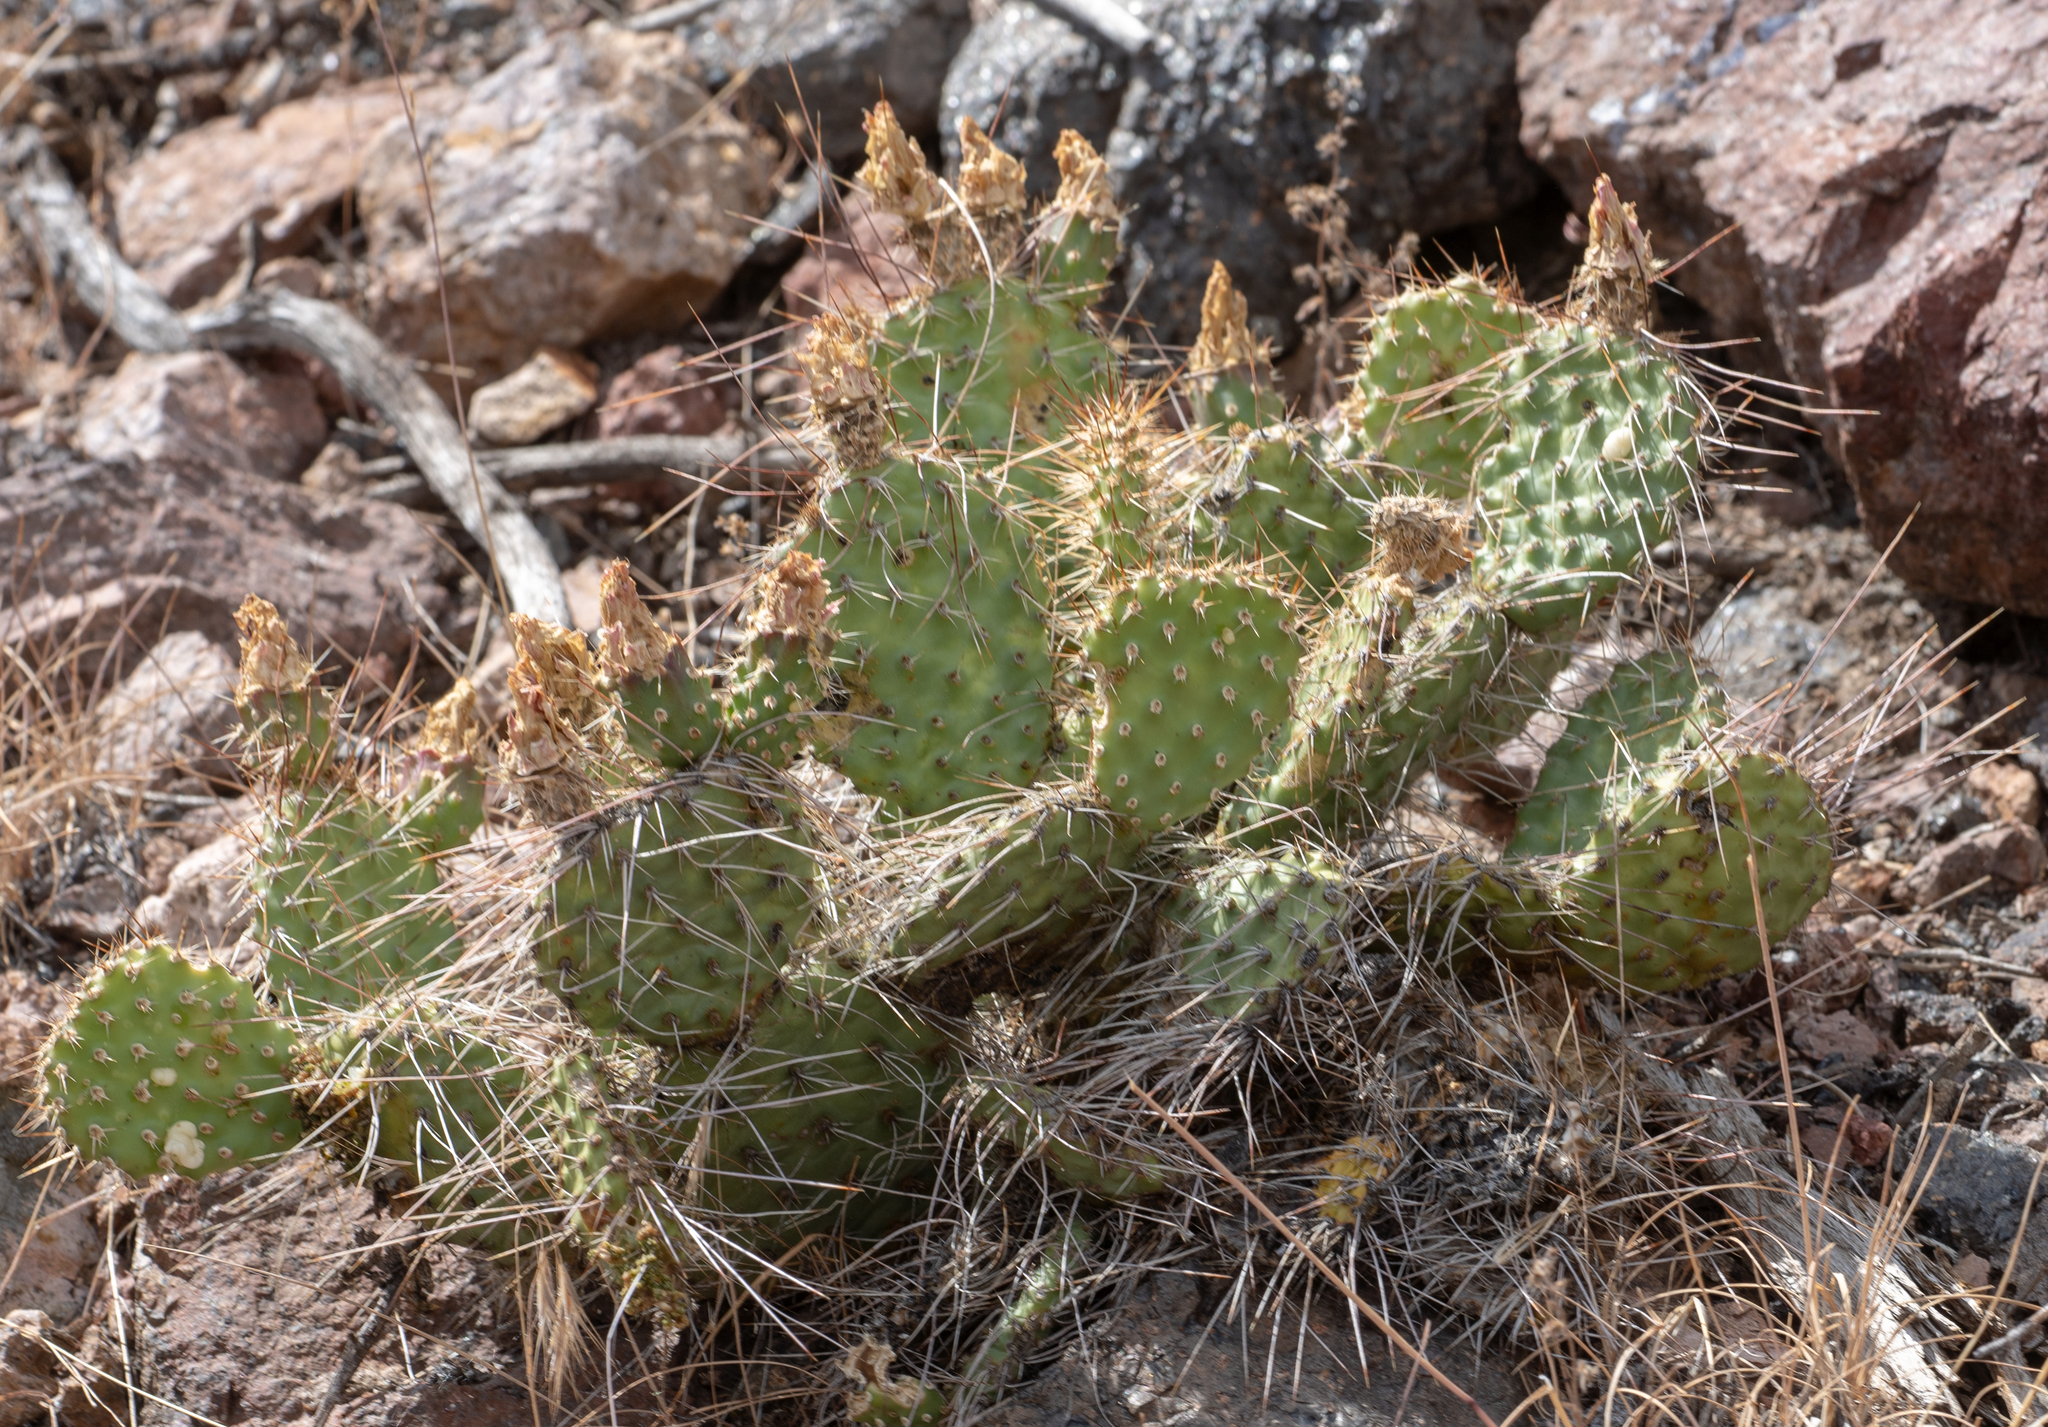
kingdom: Plantae
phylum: Tracheophyta
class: Magnoliopsida
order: Caryophyllales
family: Cactaceae
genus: Opuntia
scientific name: Opuntia polyacantha
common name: Plains prickly-pear
